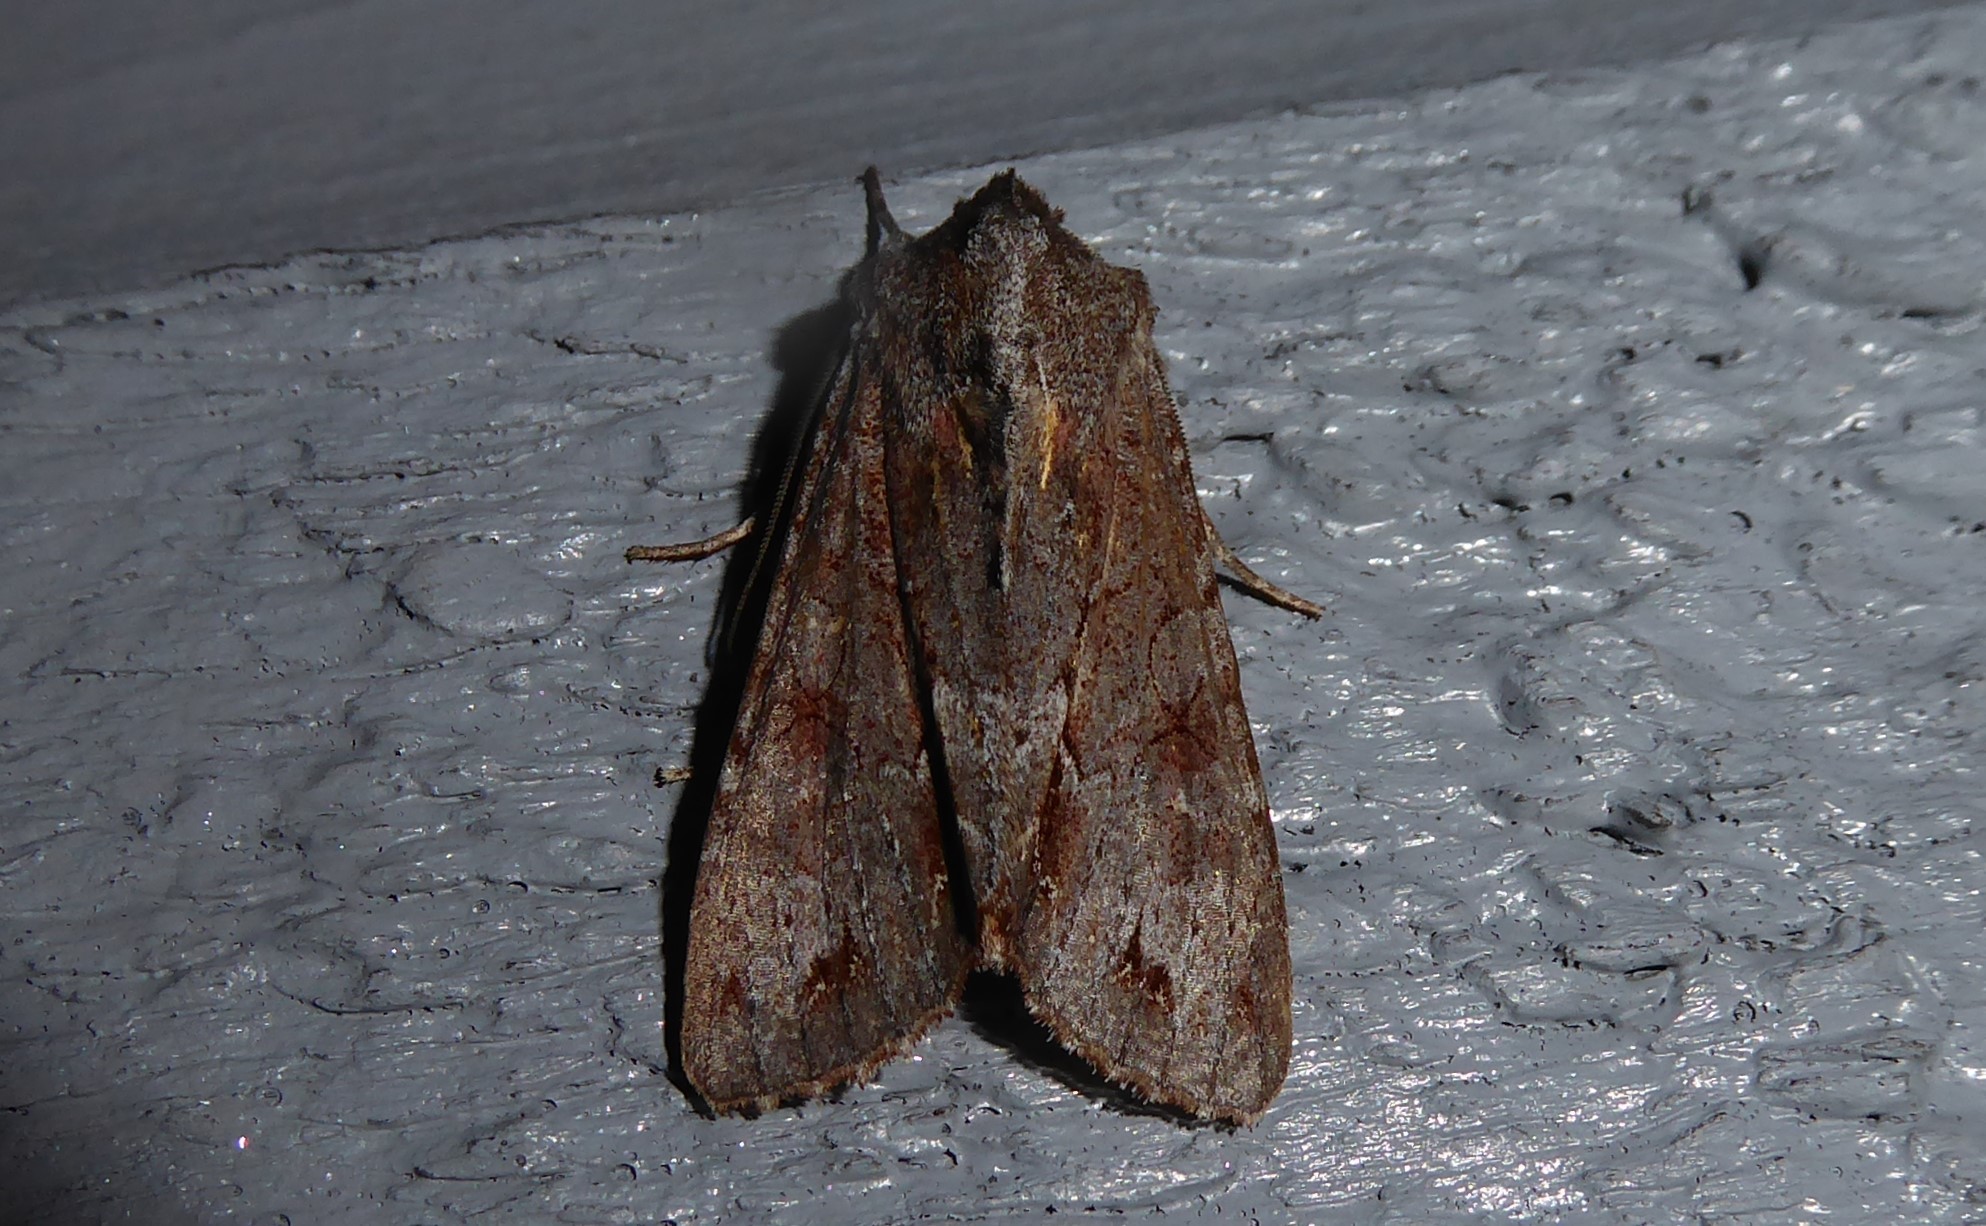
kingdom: Animalia
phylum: Arthropoda
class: Insecta
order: Lepidoptera
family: Noctuidae
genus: Ichneutica
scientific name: Ichneutica
